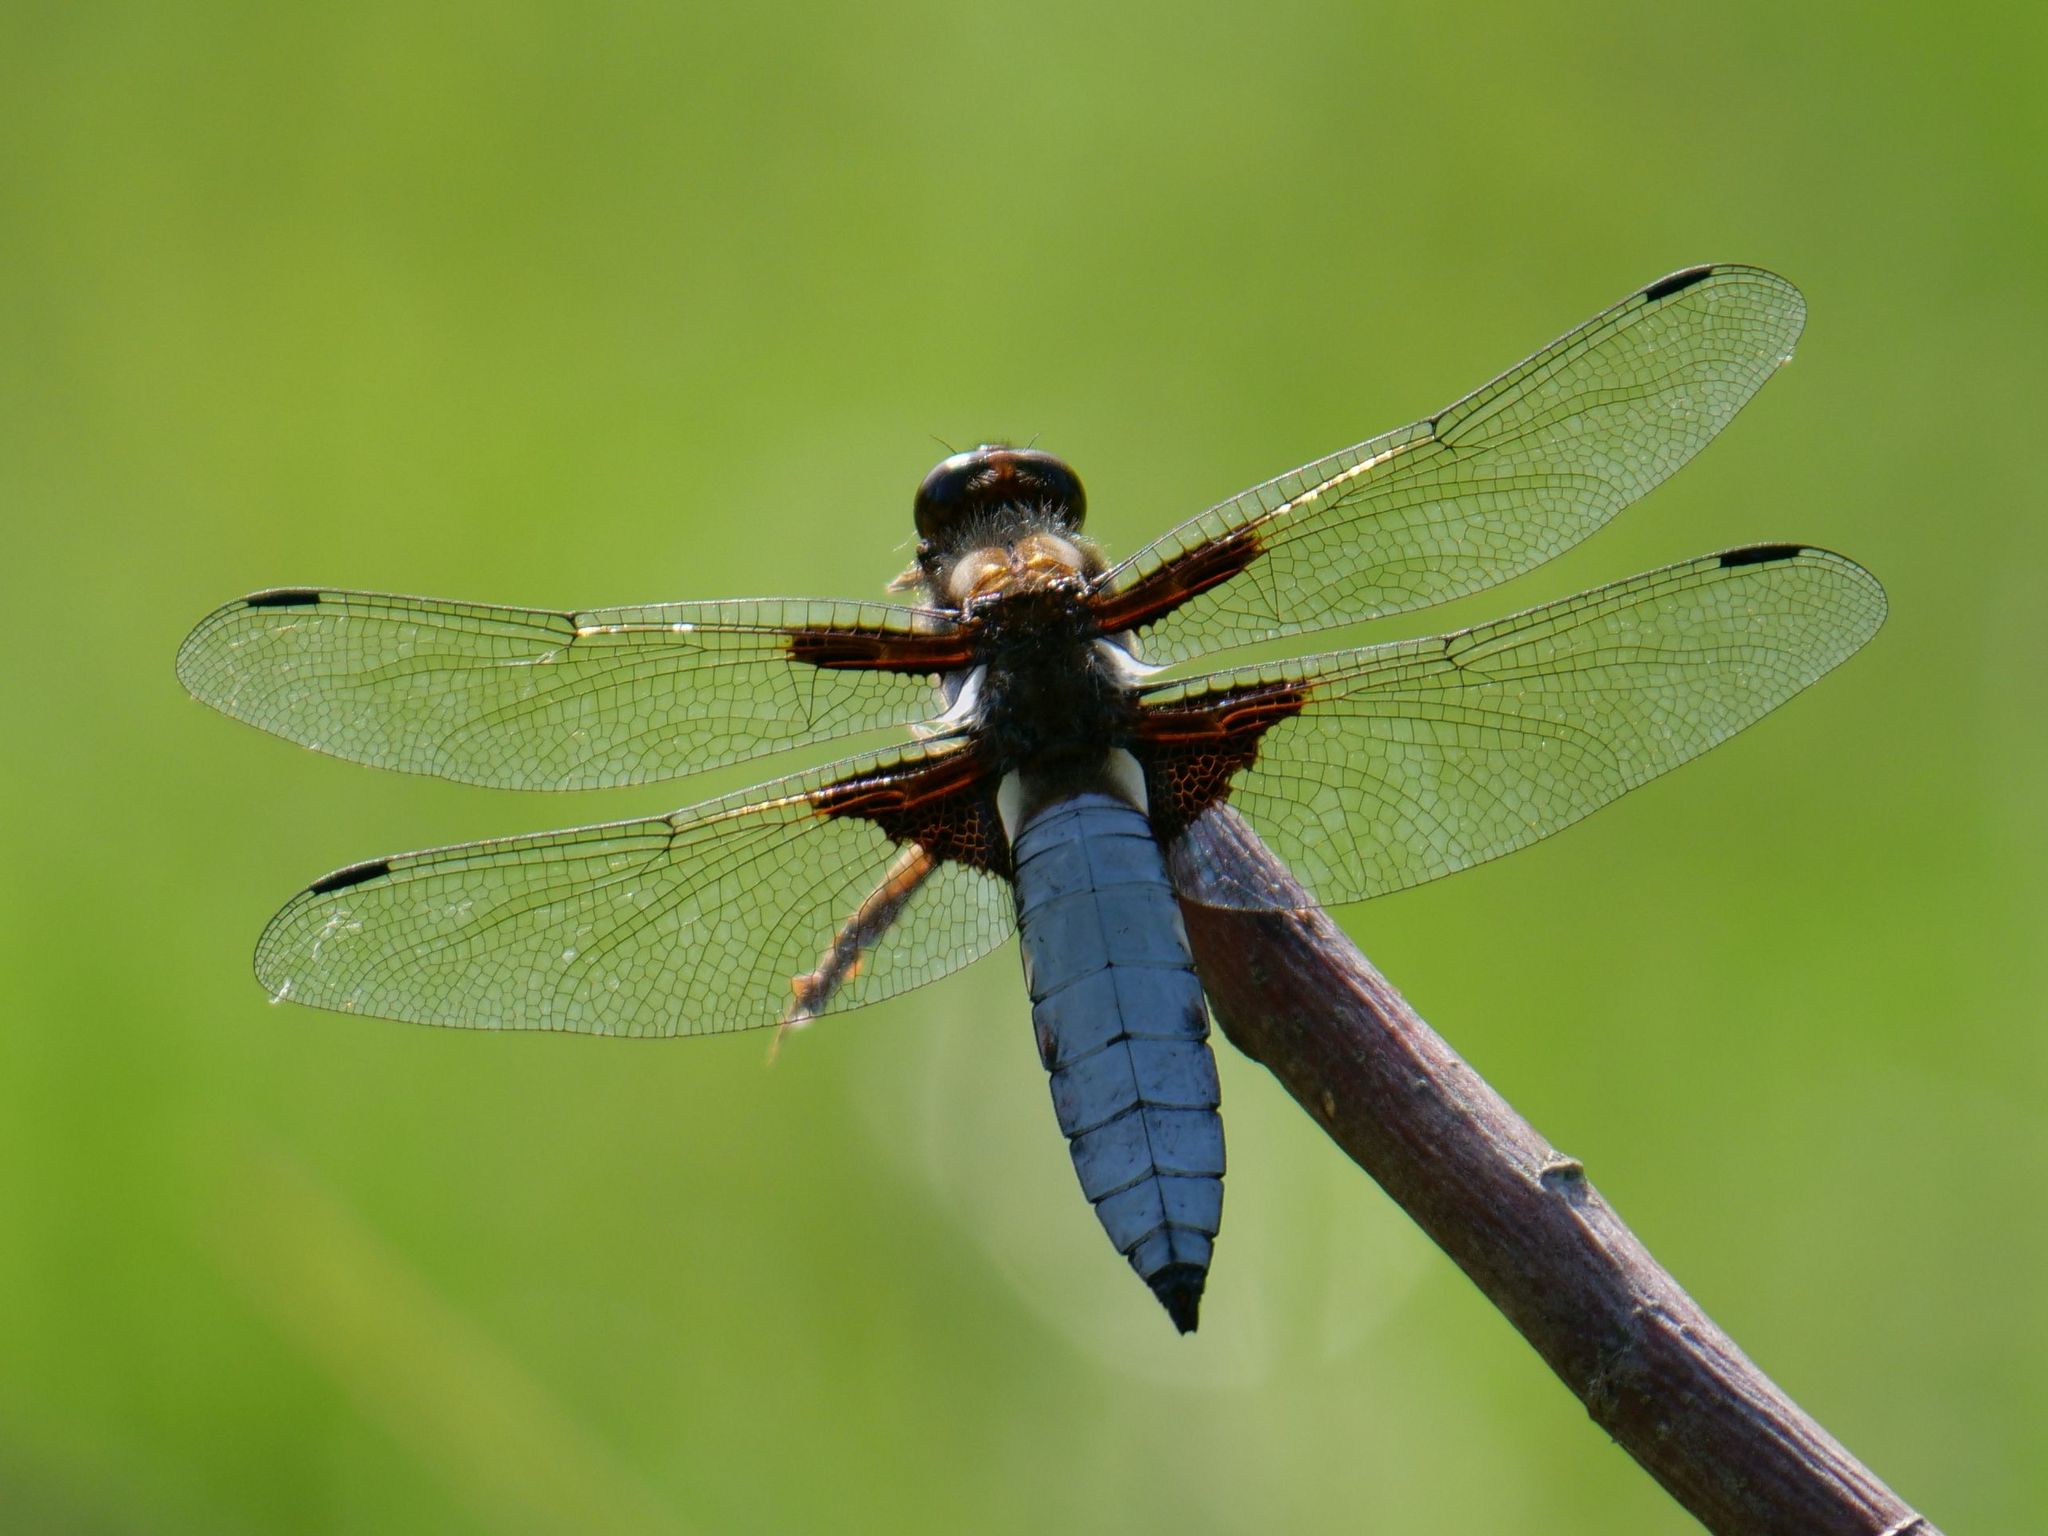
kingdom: Animalia
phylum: Arthropoda
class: Insecta
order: Odonata
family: Libellulidae
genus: Libellula
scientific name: Libellula depressa
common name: Broad-bodied chaser
